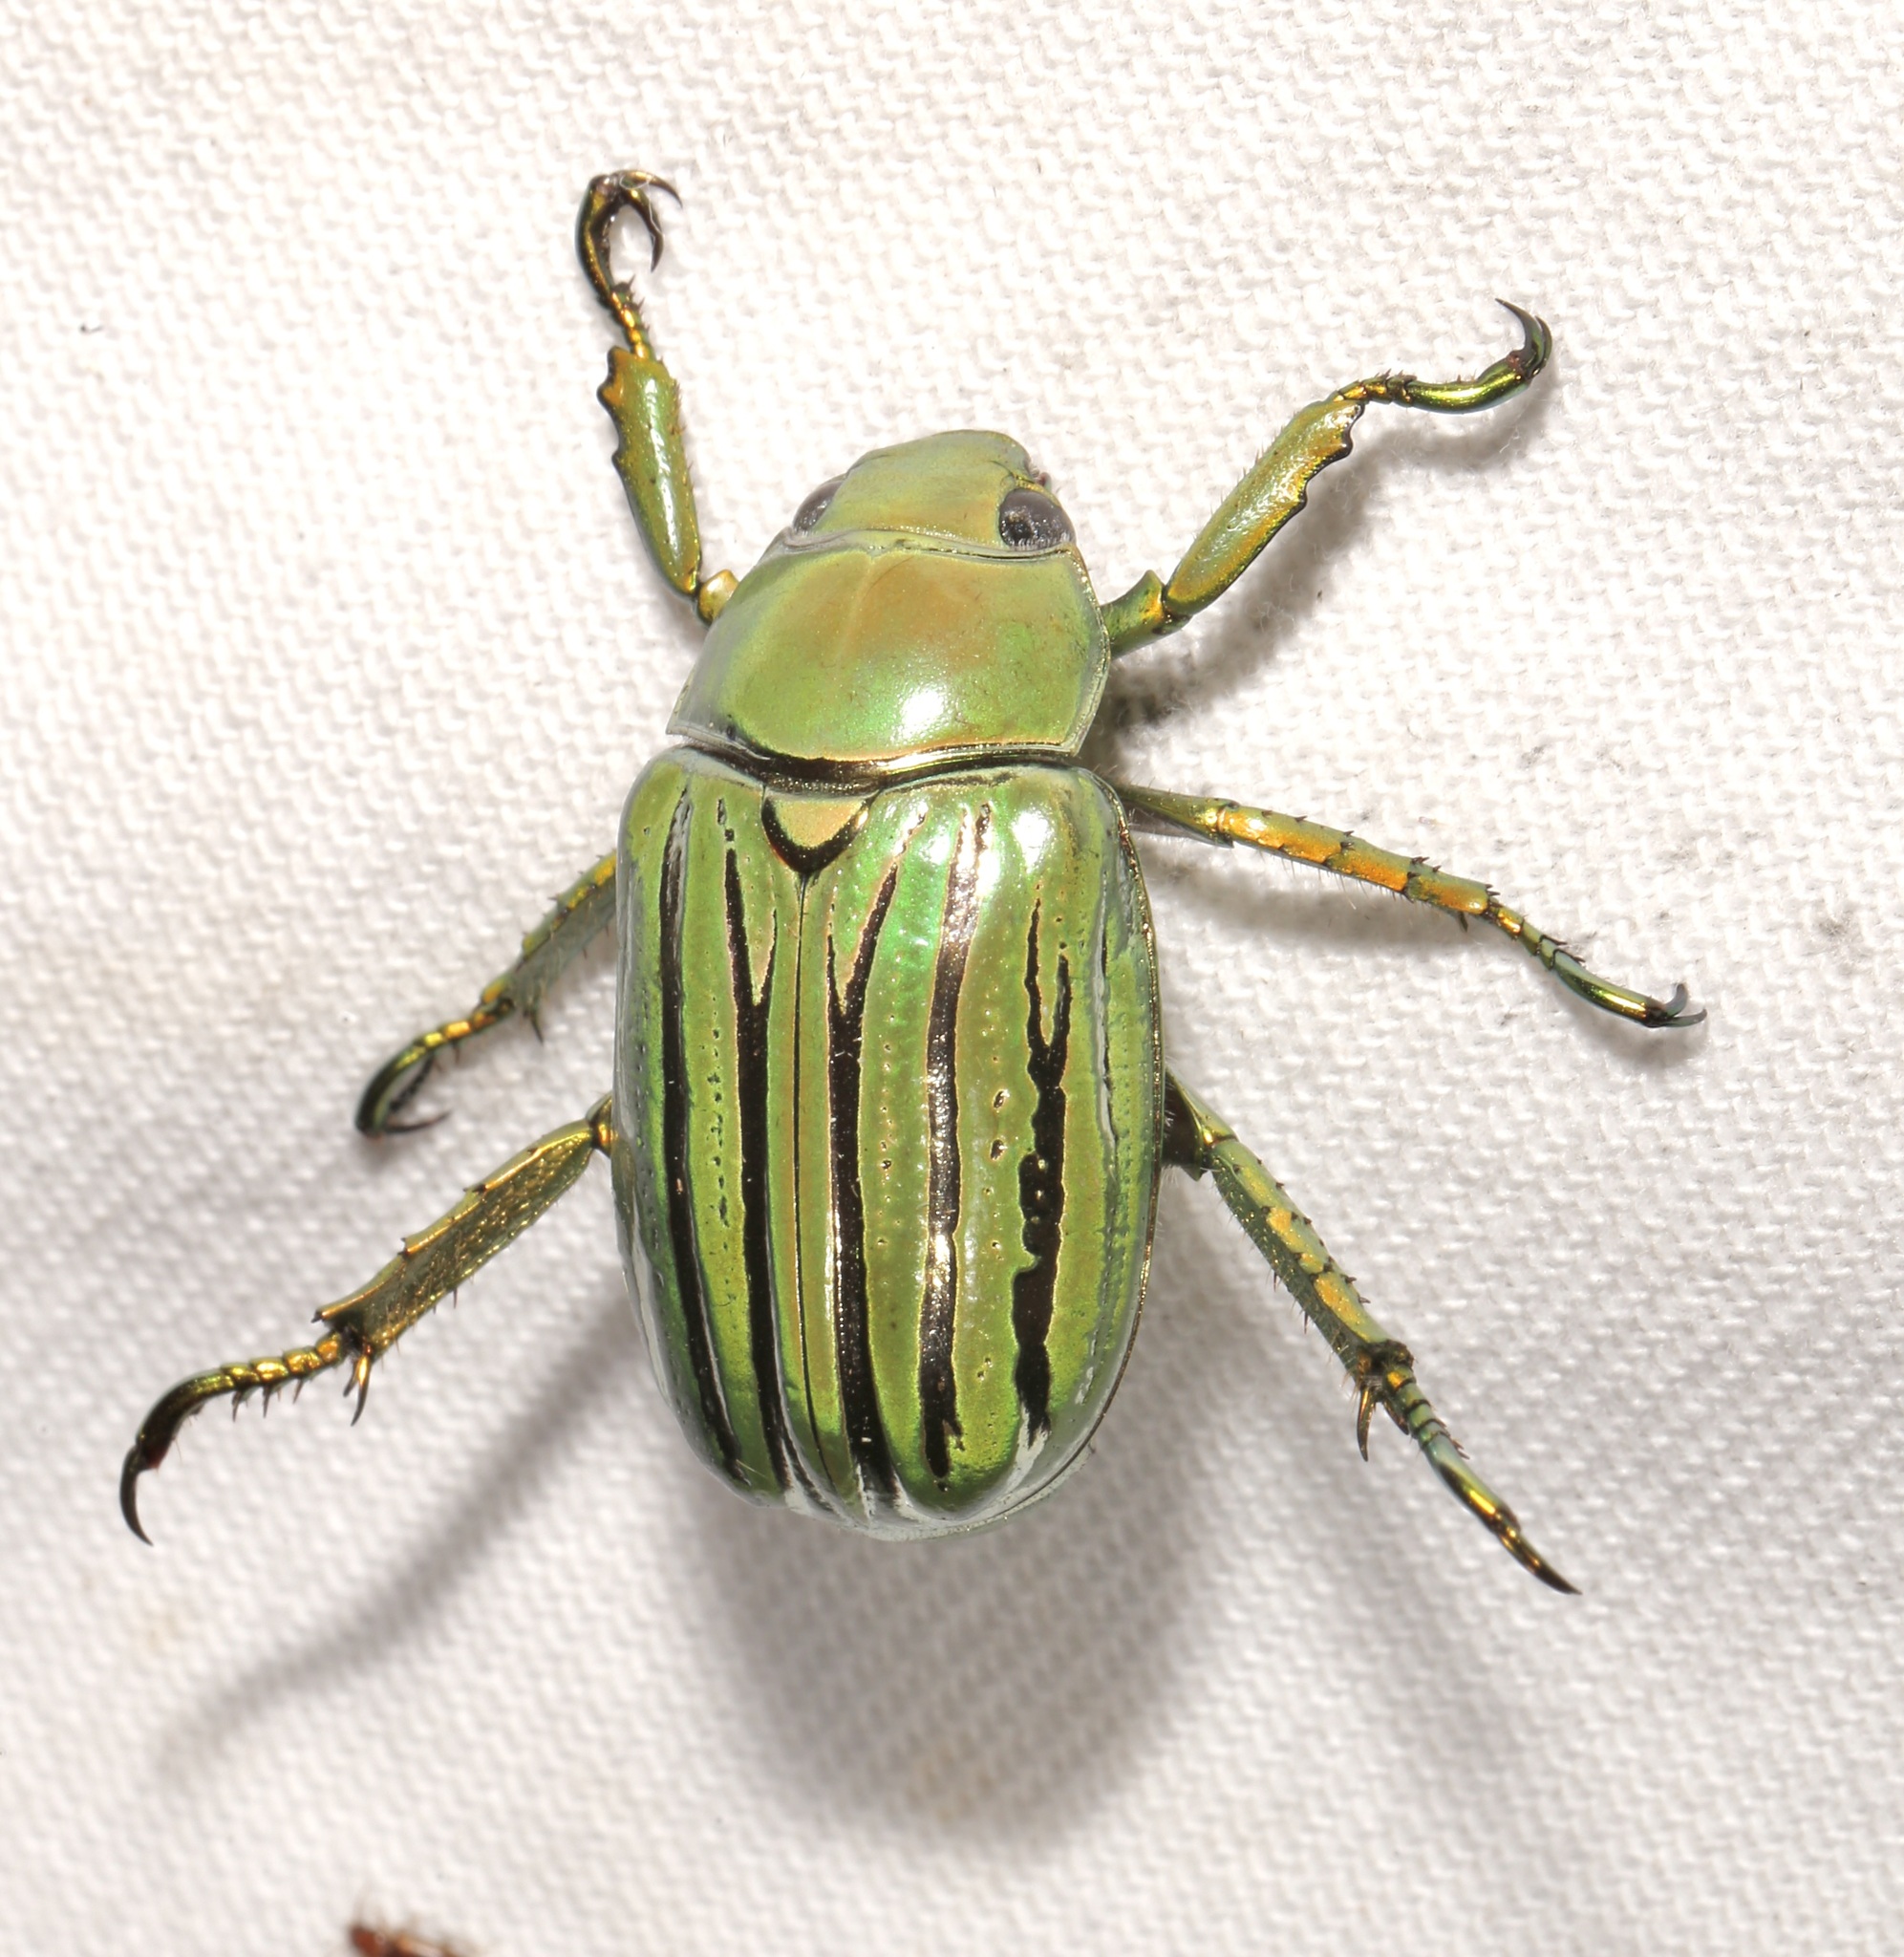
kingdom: Animalia
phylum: Arthropoda
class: Insecta
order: Coleoptera
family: Scarabaeidae
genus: Chrysina
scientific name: Chrysina gloriosa
